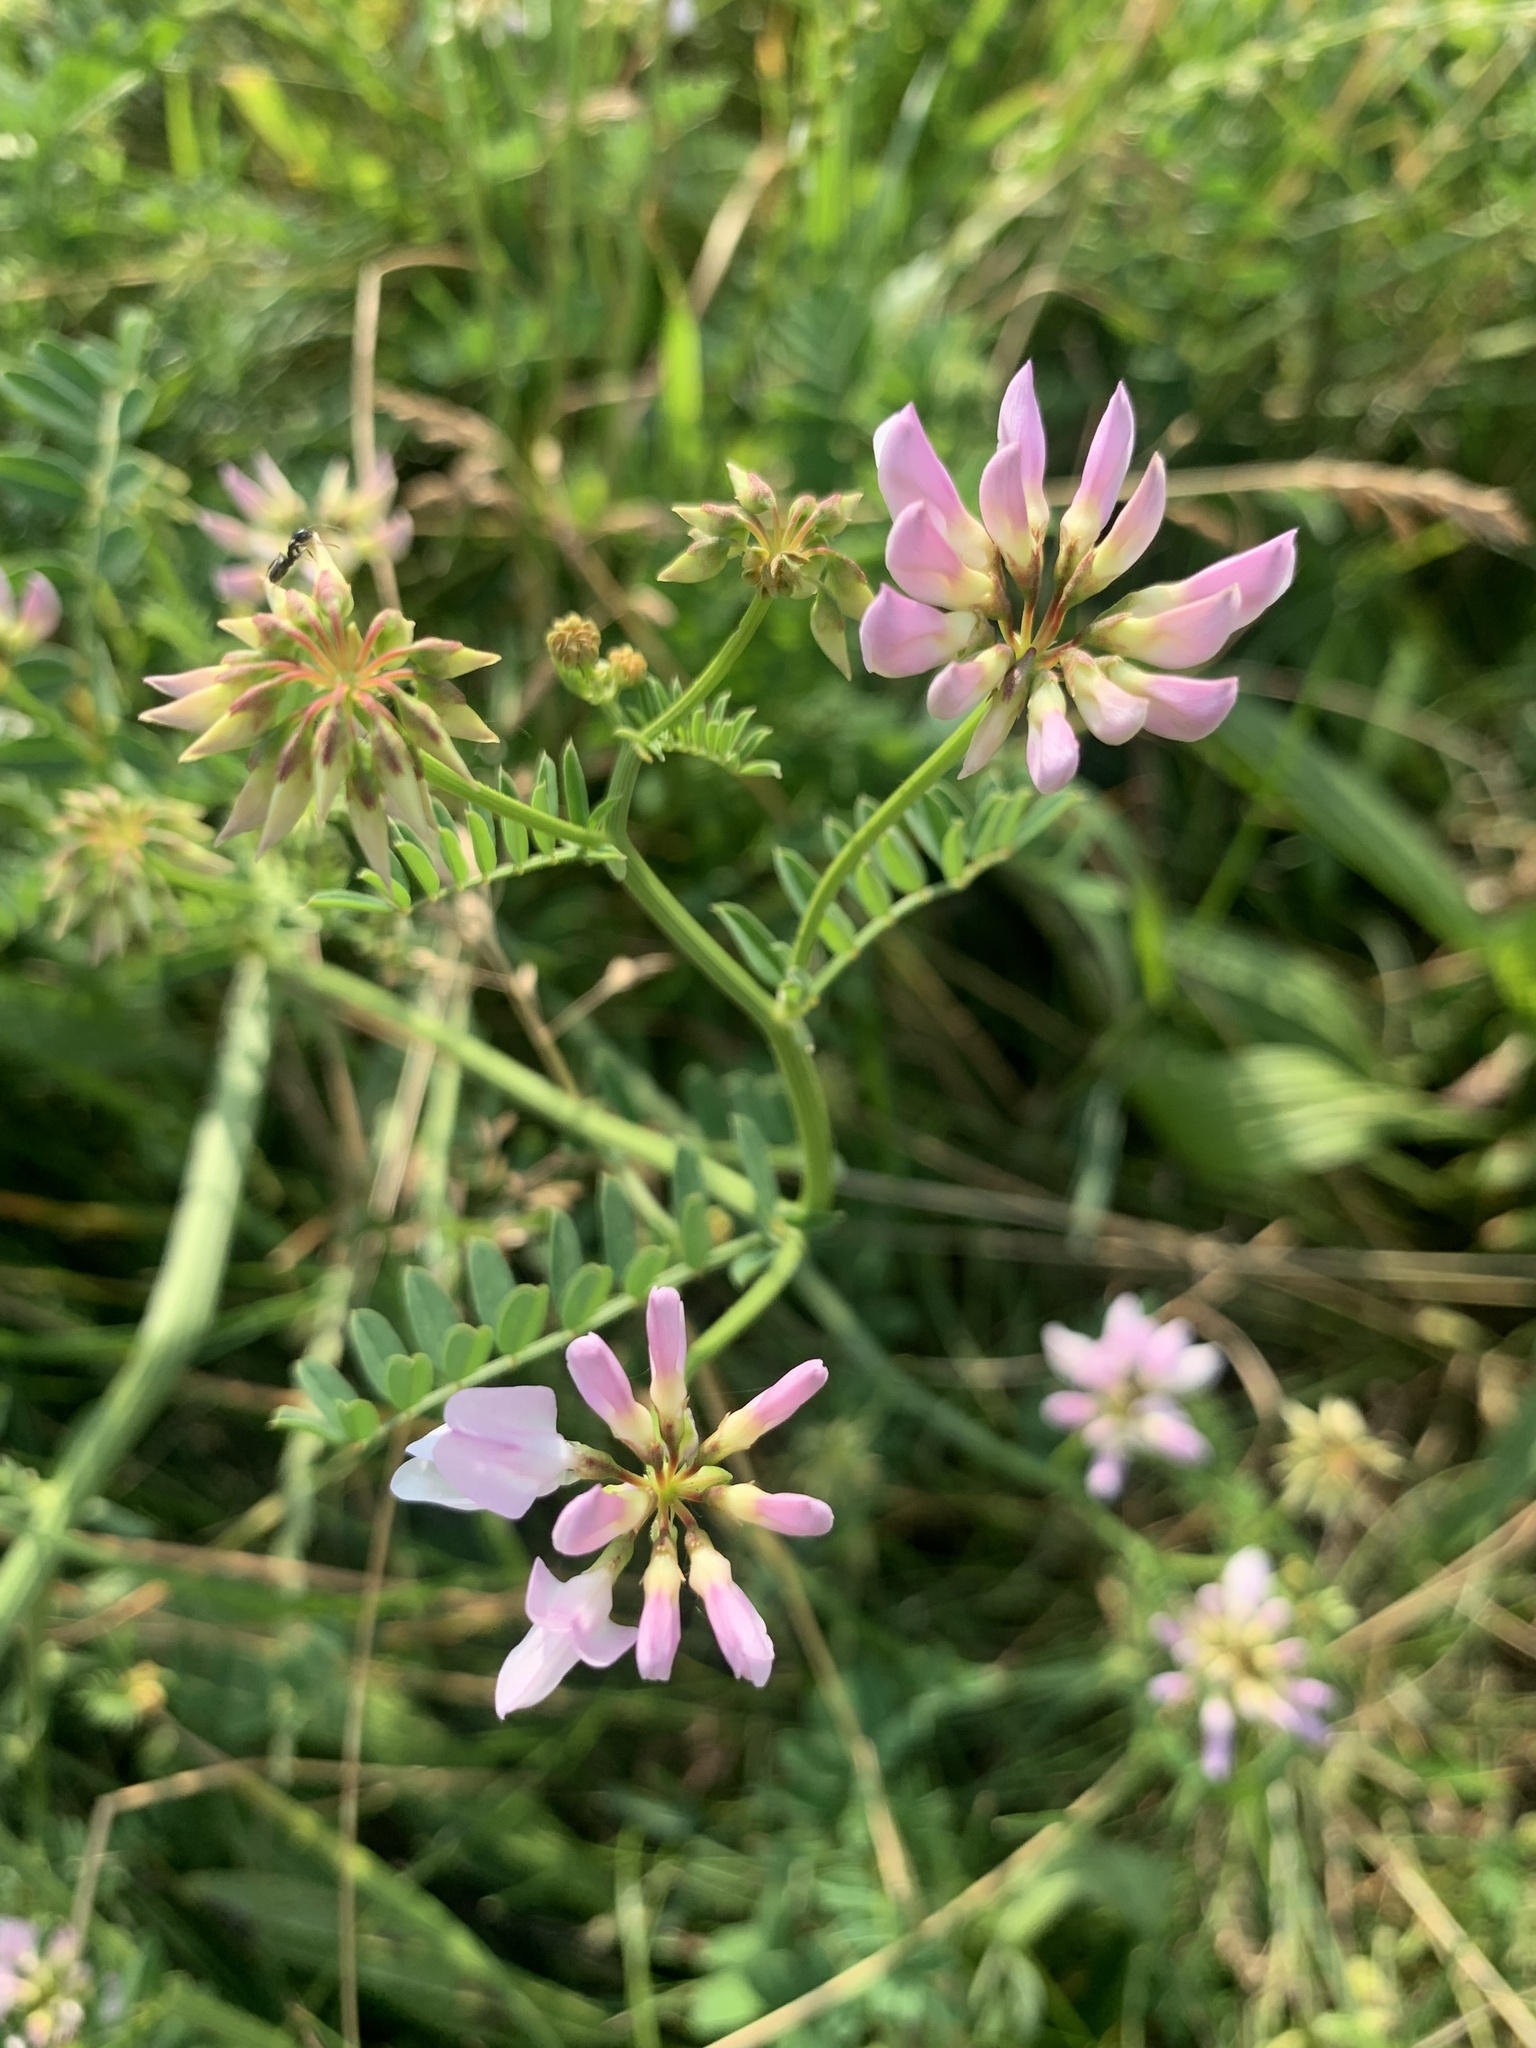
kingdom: Plantae
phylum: Tracheophyta
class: Magnoliopsida
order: Fabales
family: Fabaceae
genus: Coronilla
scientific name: Coronilla varia
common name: Crownvetch
